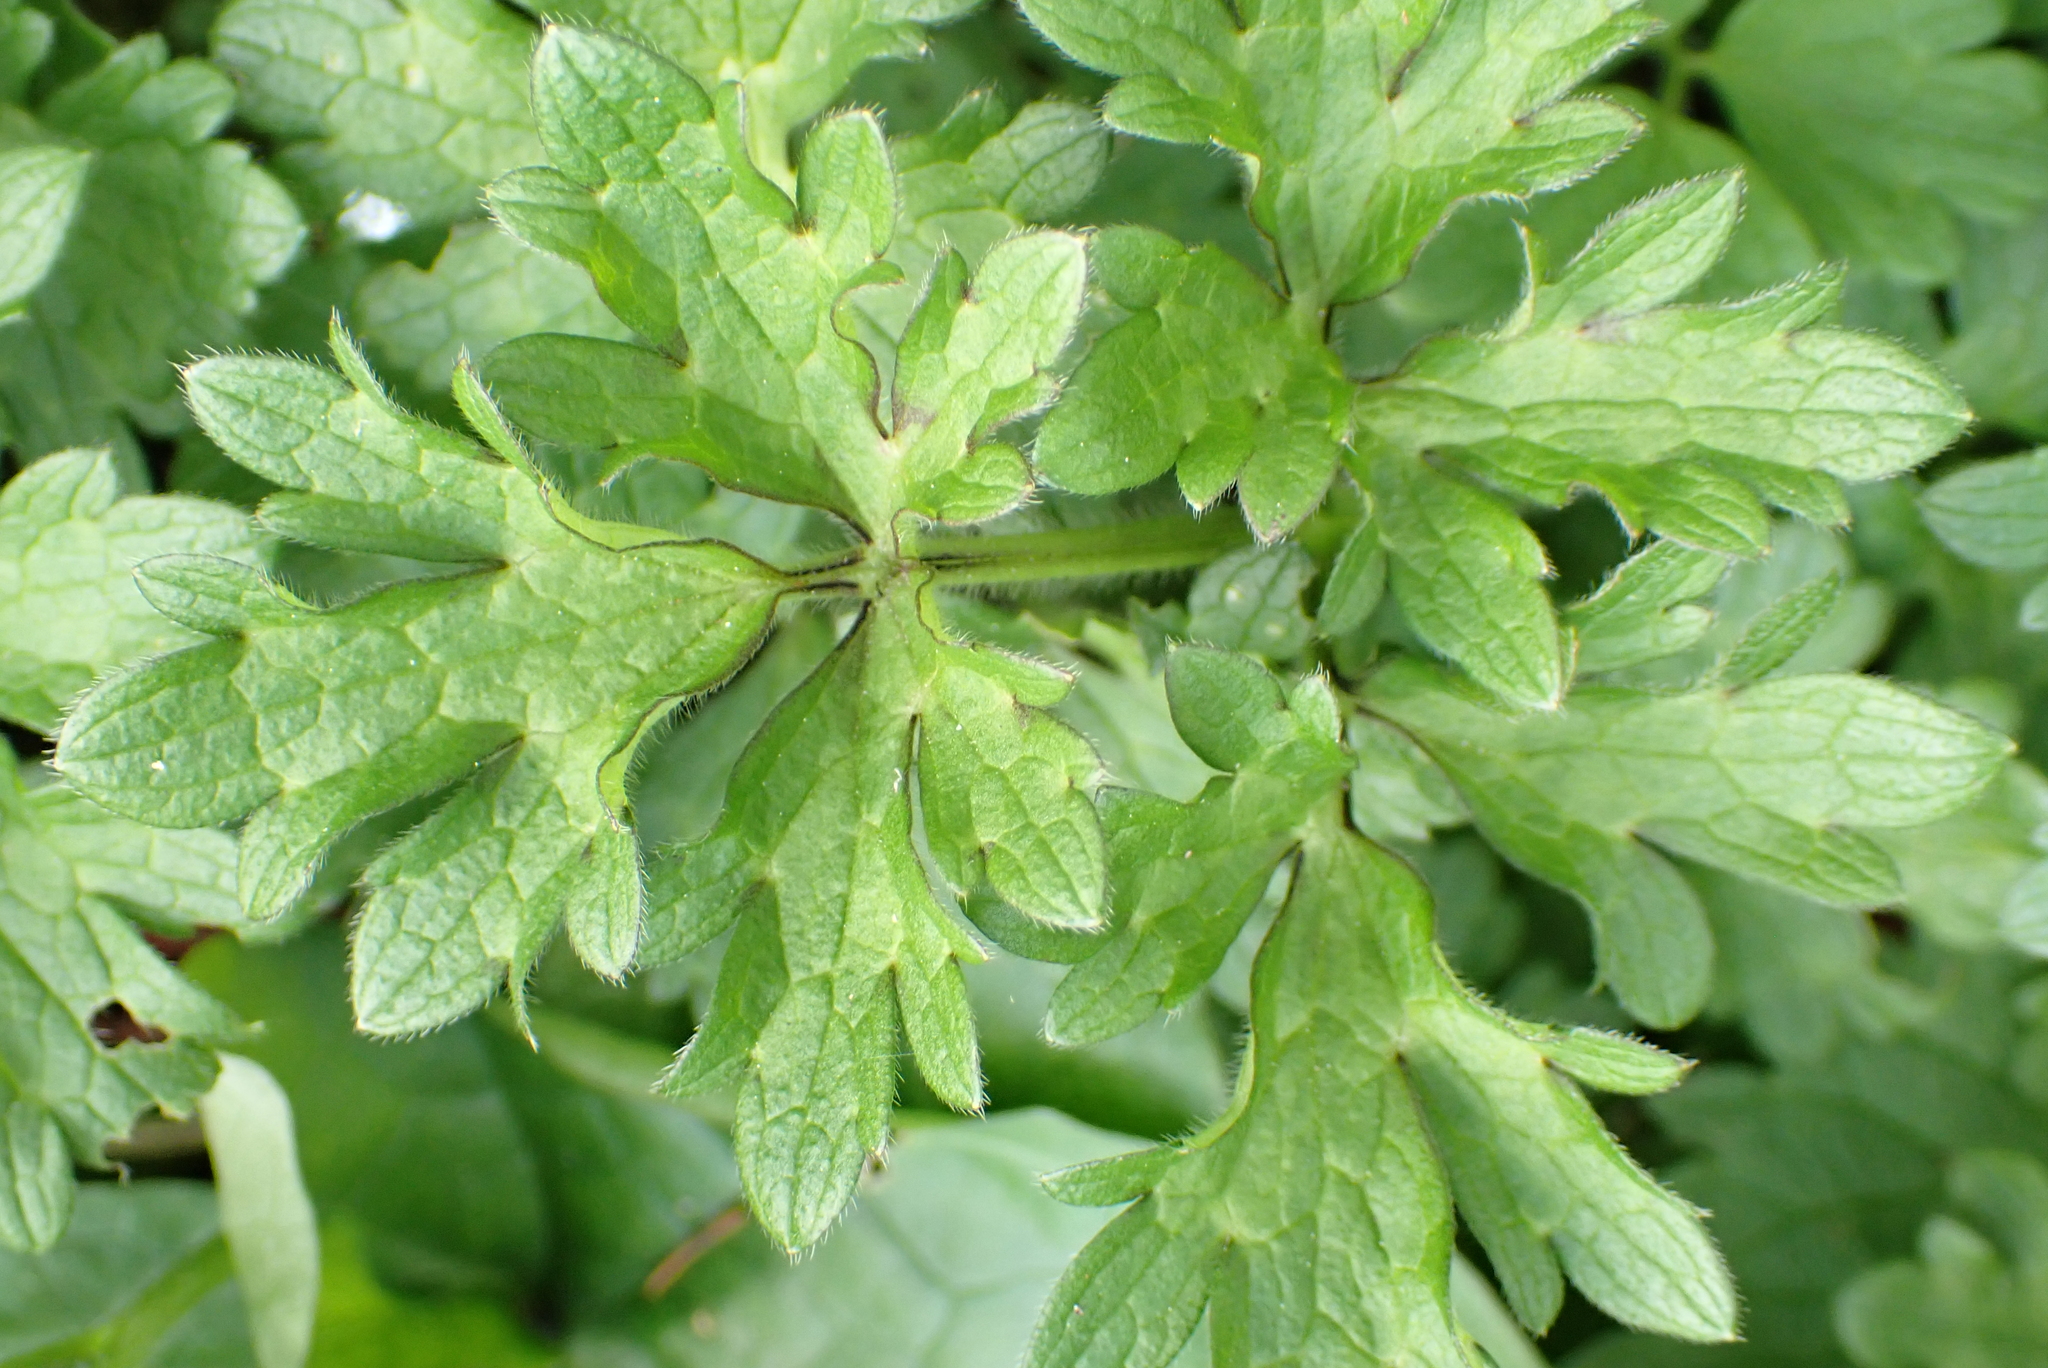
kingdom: Plantae
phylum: Tracheophyta
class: Magnoliopsida
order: Ranunculales
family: Ranunculaceae
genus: Ranunculus
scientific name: Ranunculus repens
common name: Creeping buttercup
